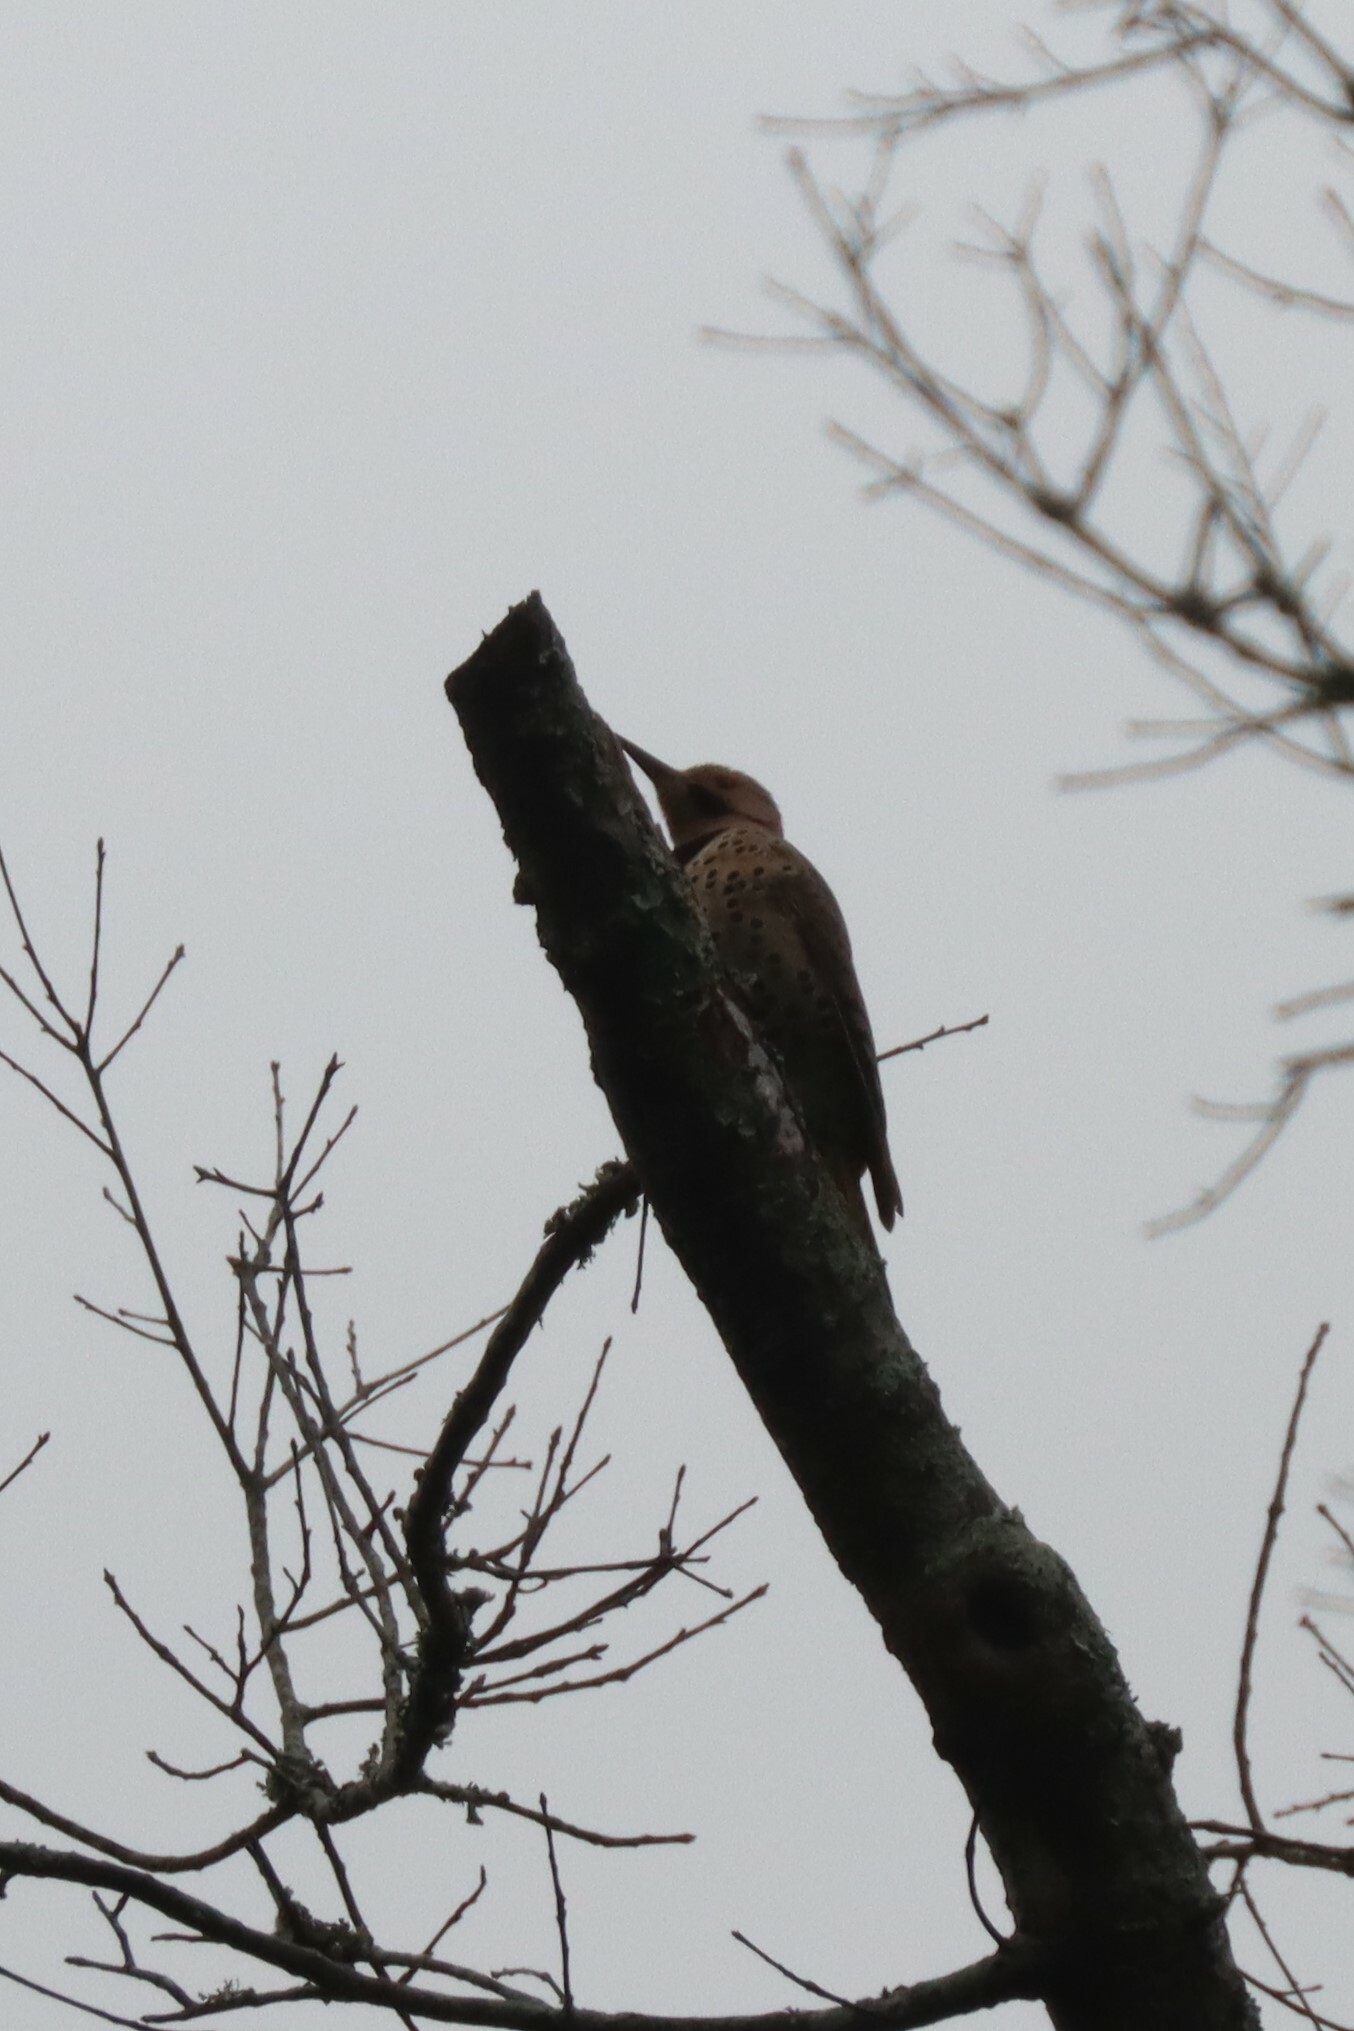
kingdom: Animalia
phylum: Chordata
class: Aves
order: Piciformes
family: Picidae
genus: Colaptes
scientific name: Colaptes auratus
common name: Northern flicker
